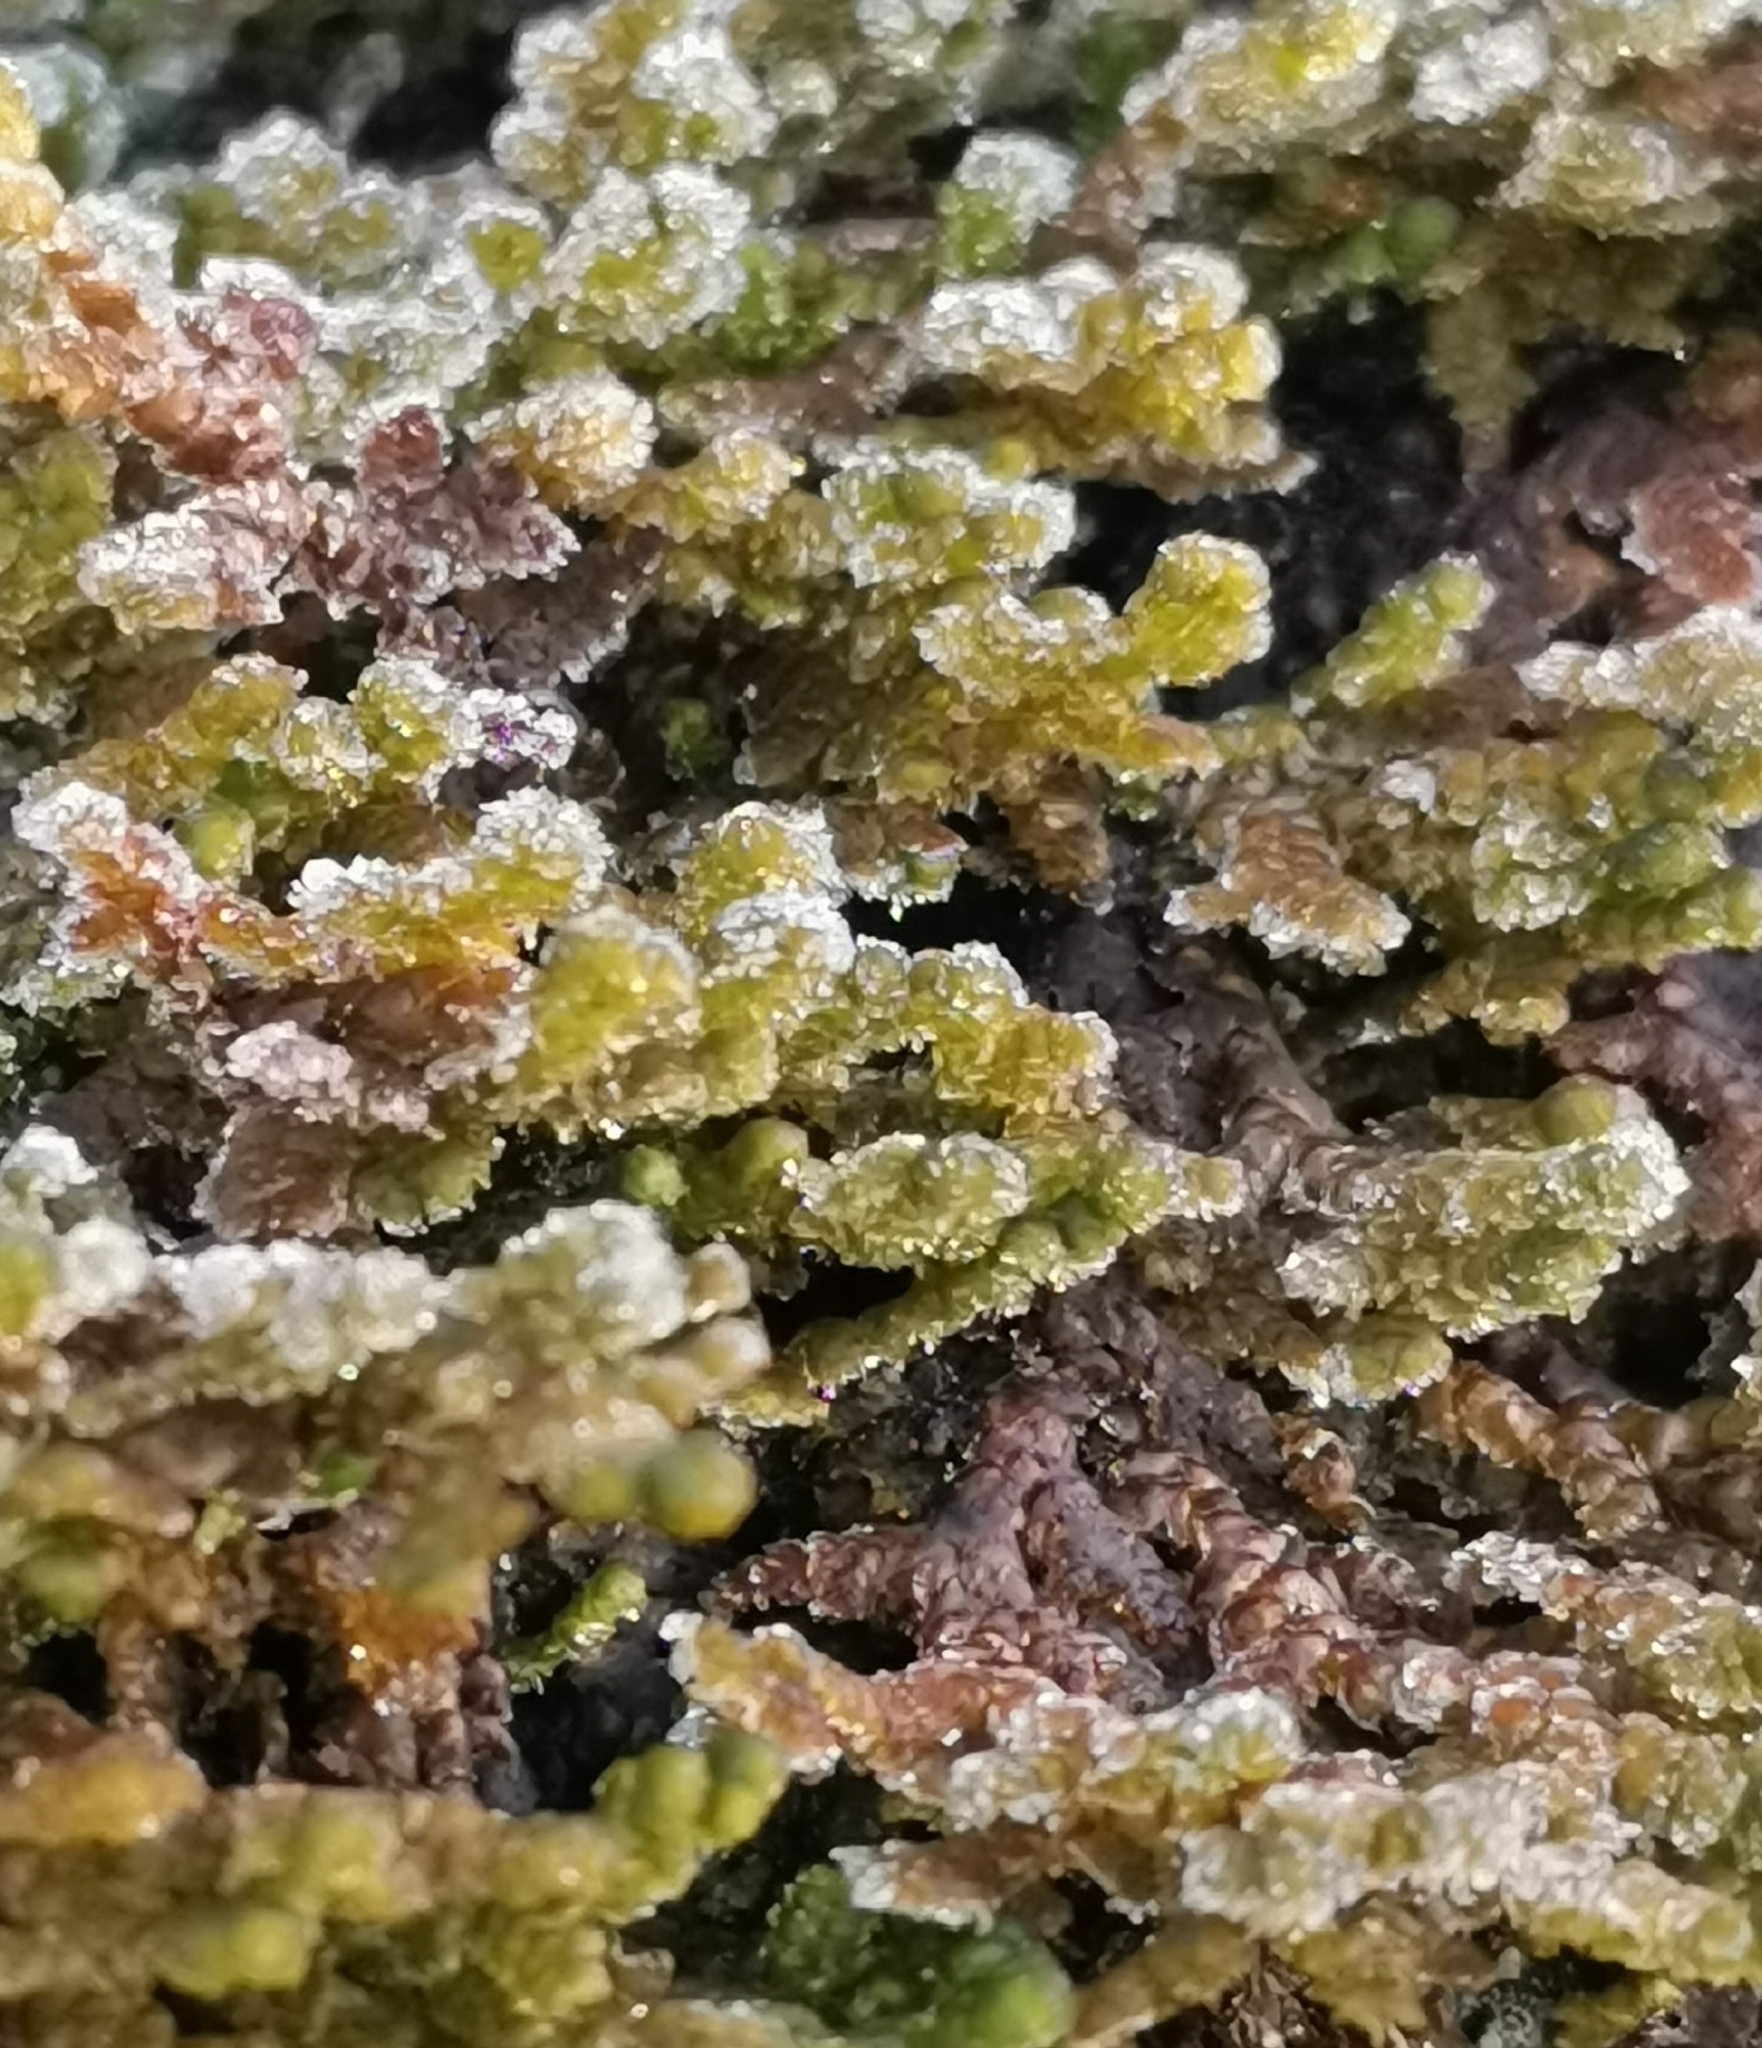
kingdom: Plantae
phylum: Marchantiophyta
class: Jungermanniopsida
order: Ptilidiales
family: Ptilidiaceae
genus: Ptilidium
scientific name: Ptilidium ciliare
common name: Ciliate fringewort
